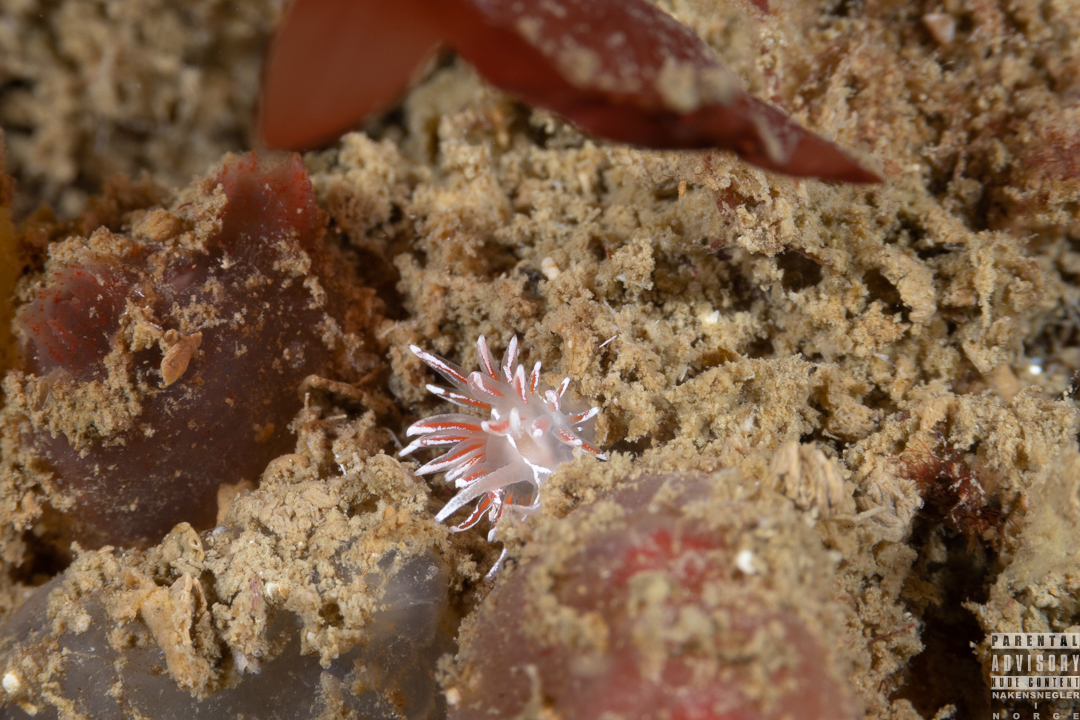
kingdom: Animalia
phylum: Mollusca
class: Gastropoda
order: Nudibranchia
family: Coryphellidae
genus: Coryphella
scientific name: Coryphella lineata
